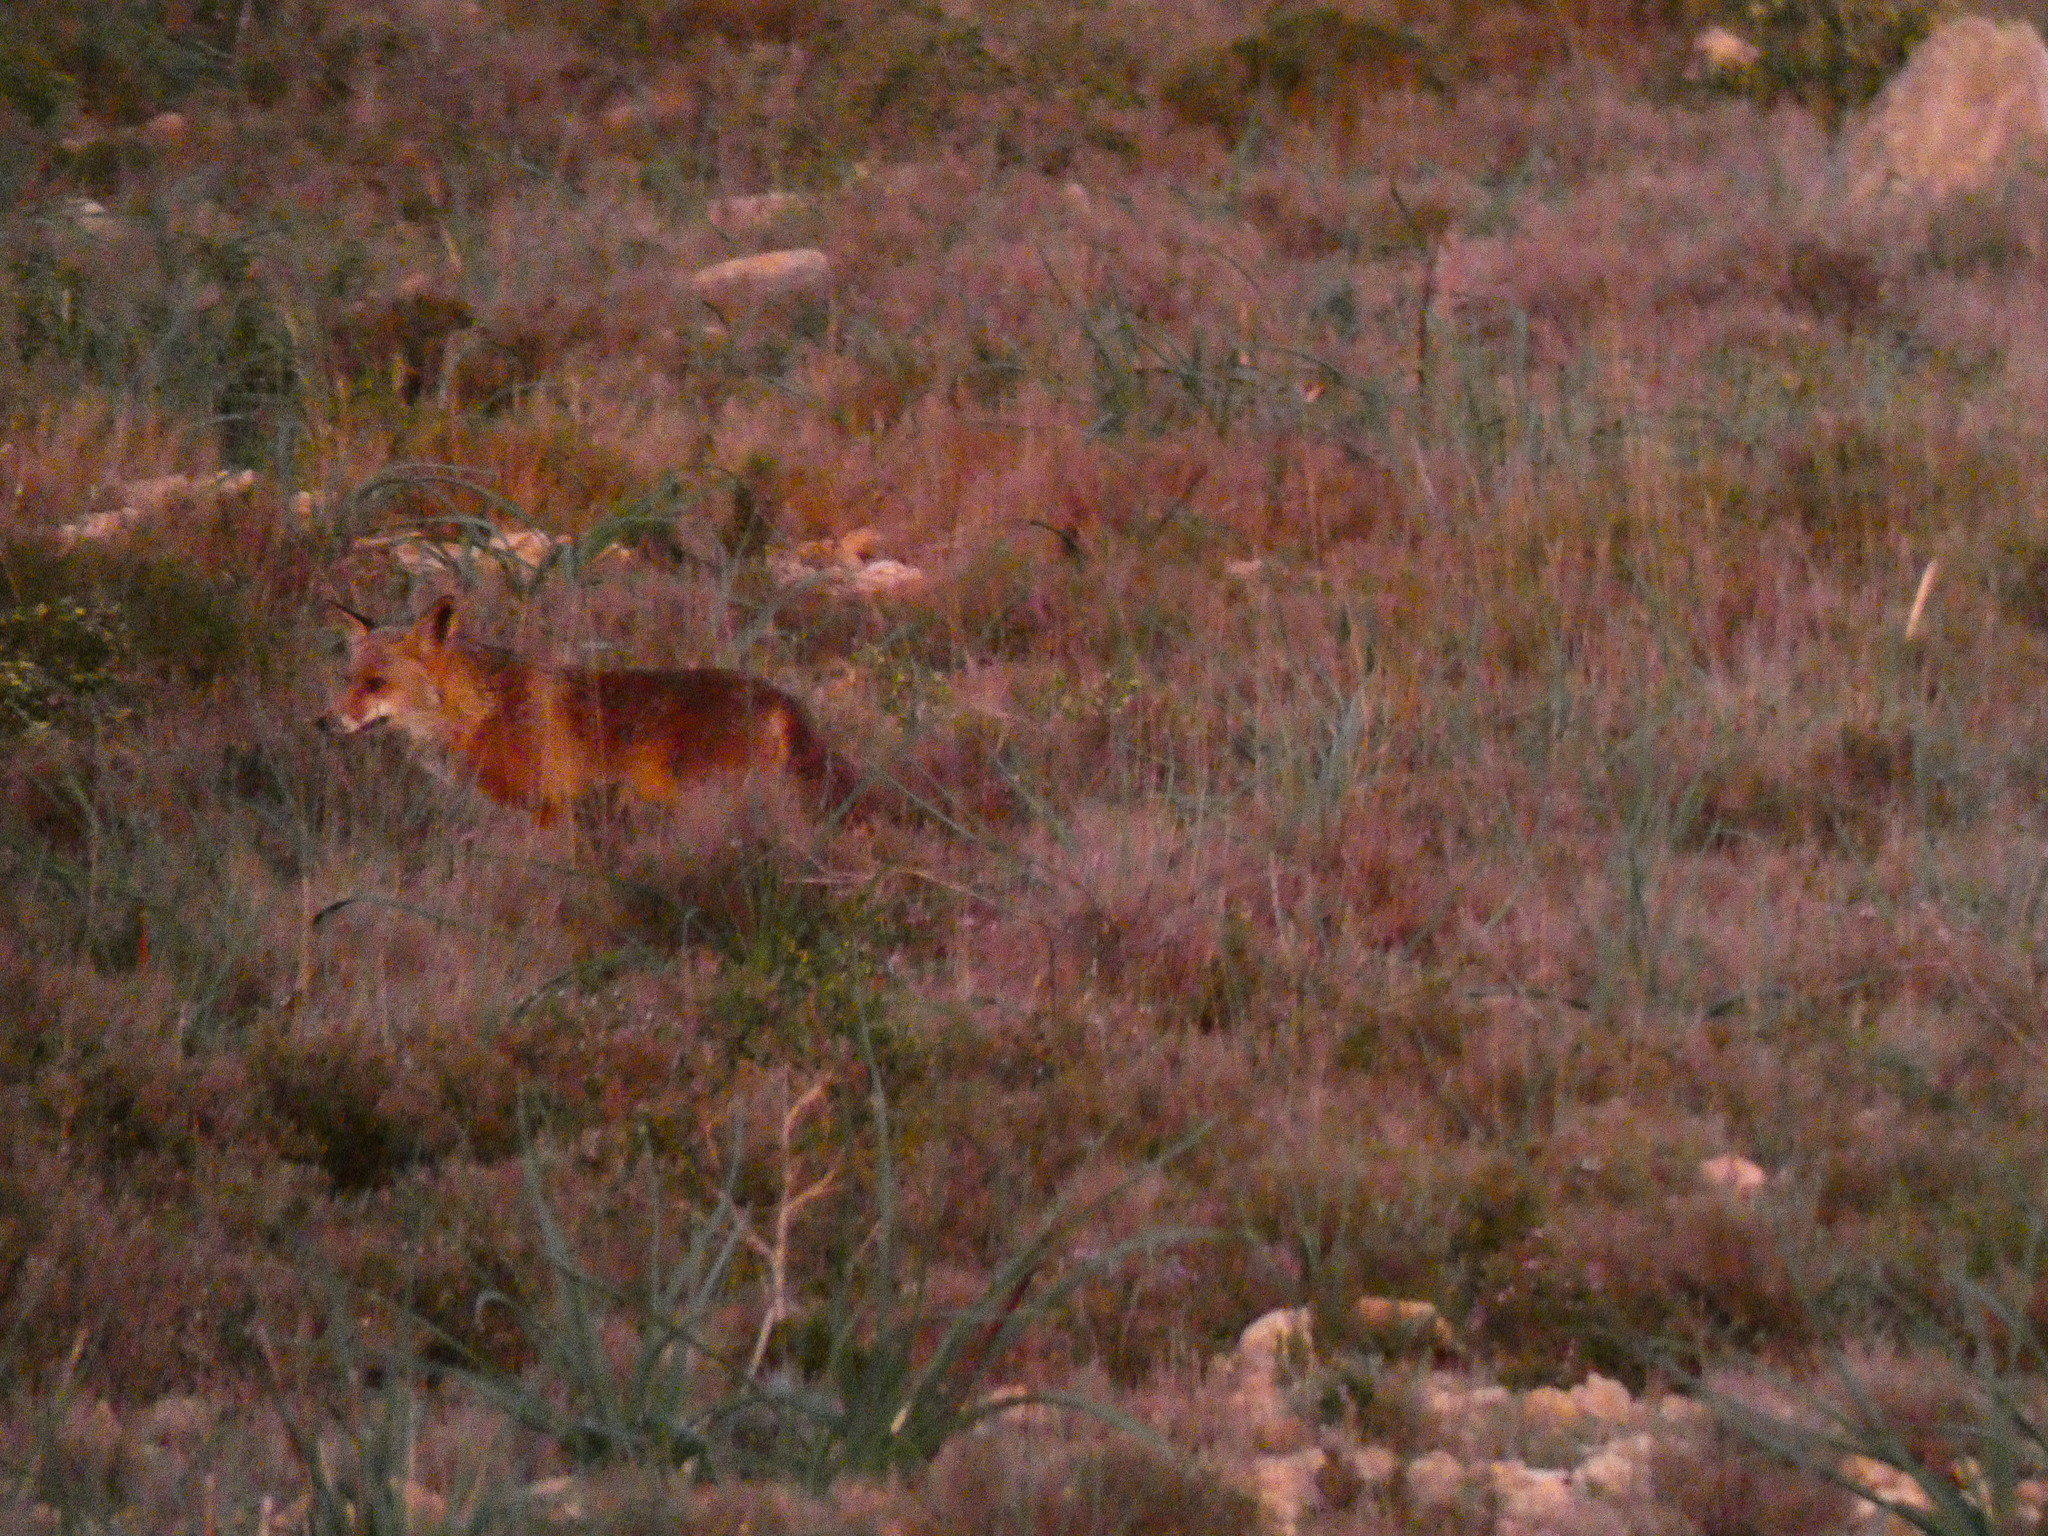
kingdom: Animalia
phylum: Chordata
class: Mammalia
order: Carnivora
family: Canidae
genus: Vulpes
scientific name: Vulpes vulpes
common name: Red fox
